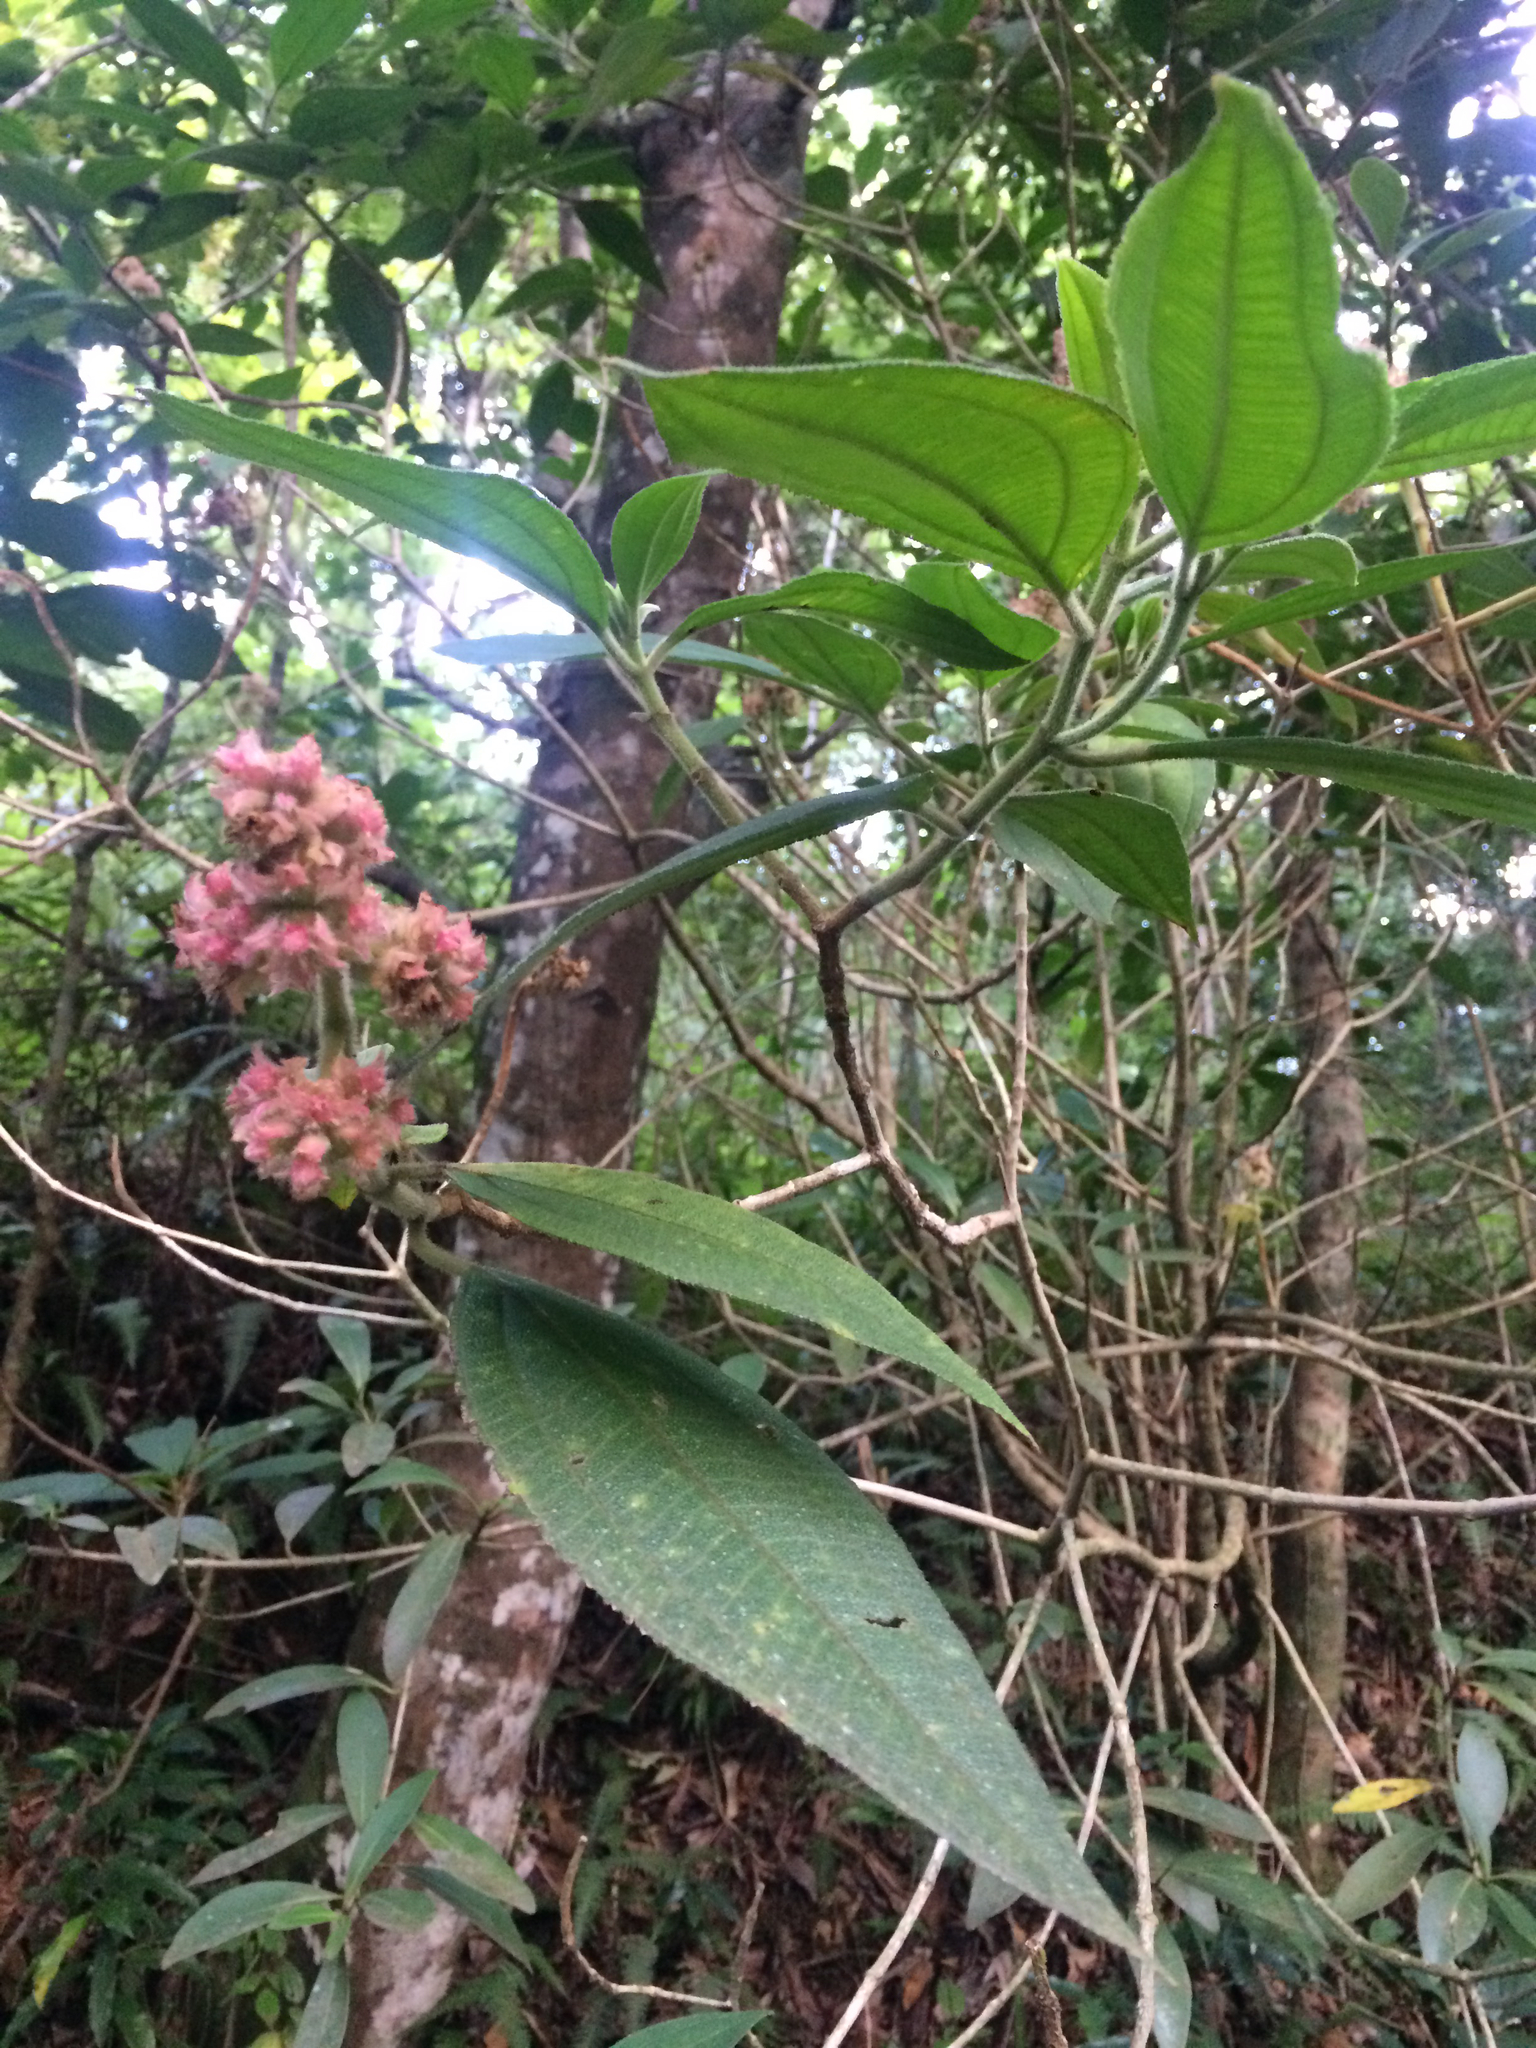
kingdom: Plantae
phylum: Tracheophyta
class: Magnoliopsida
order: Myrtales
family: Melastomataceae
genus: Miconia
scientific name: Miconia melastomoides
